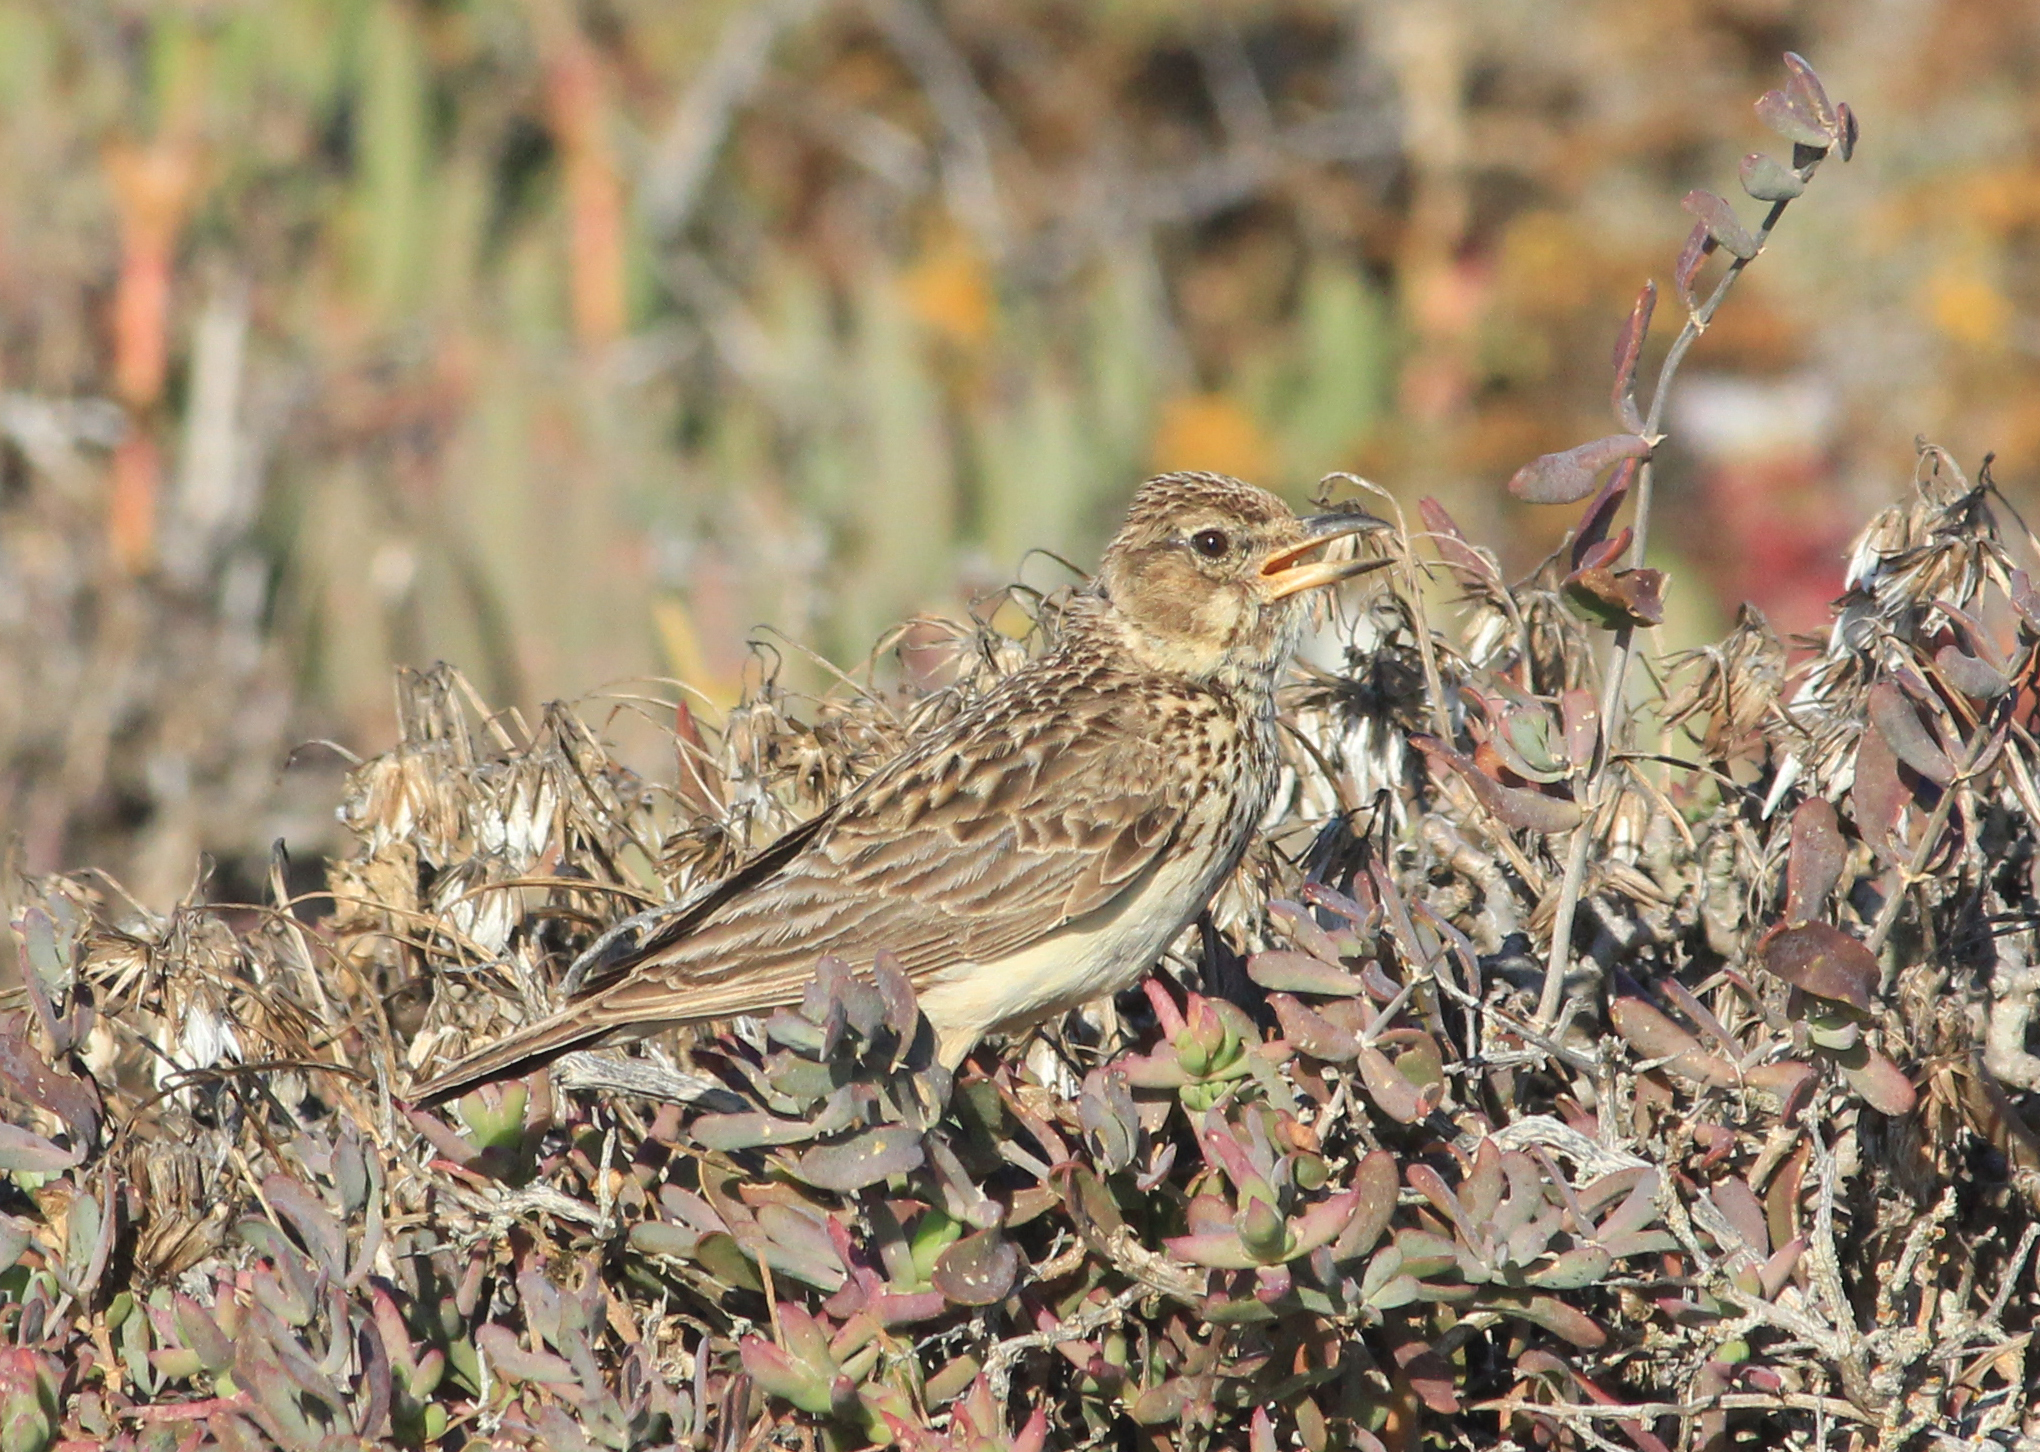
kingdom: Animalia
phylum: Chordata
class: Aves
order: Passeriformes
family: Alaudidae
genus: Galerida
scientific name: Galerida magnirostris
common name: Large-billed lark
